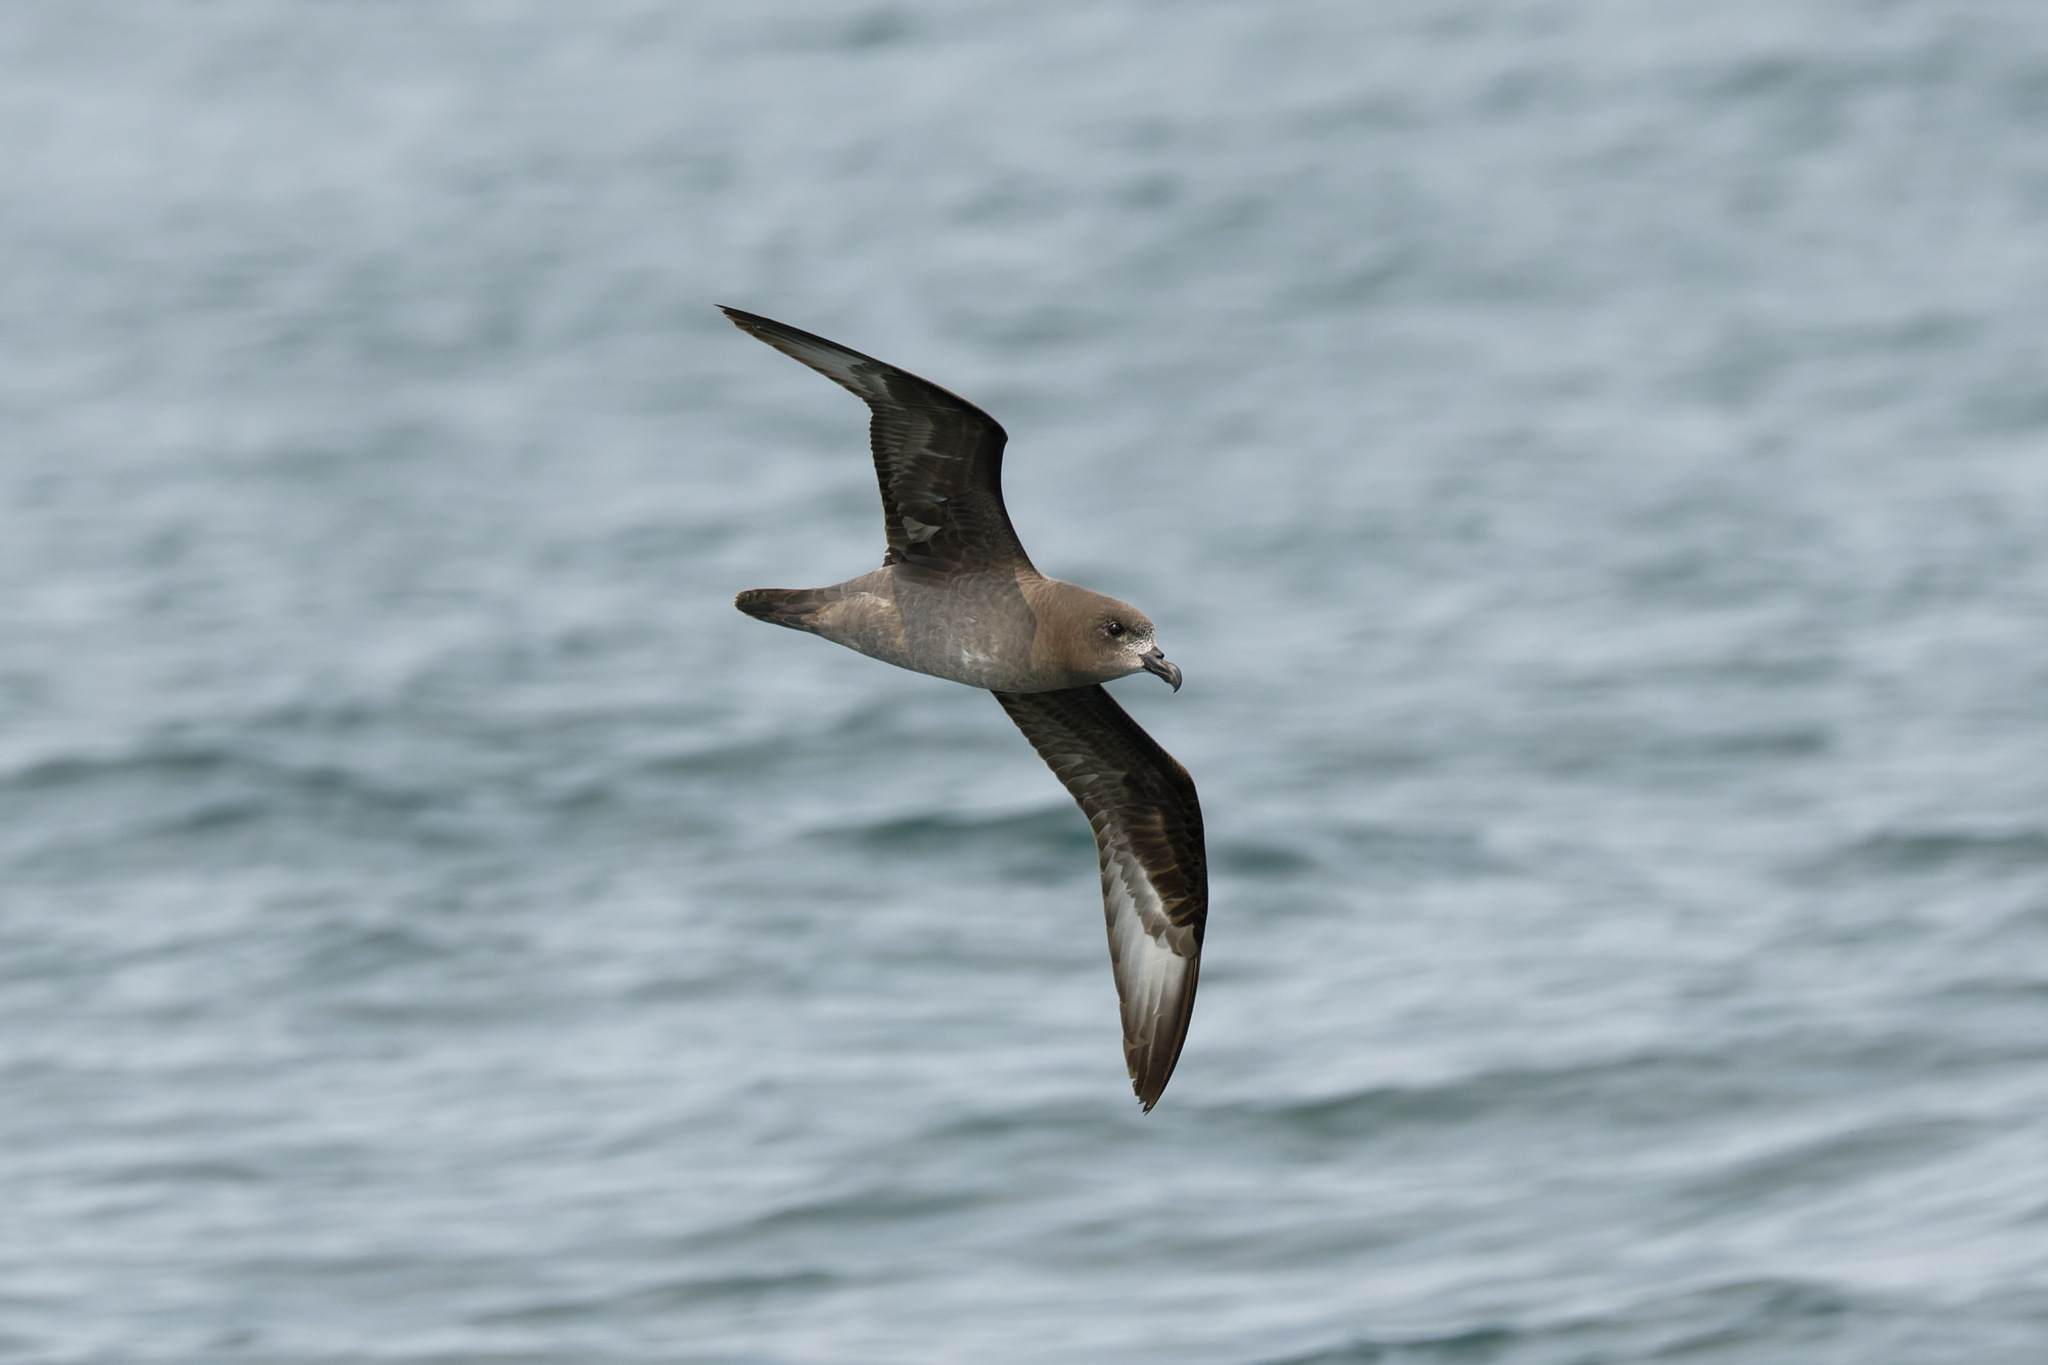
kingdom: Animalia
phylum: Chordata
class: Aves
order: Procellariiformes
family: Procellariidae
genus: Pterodroma
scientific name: Pterodroma solandri
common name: Providence petrel
